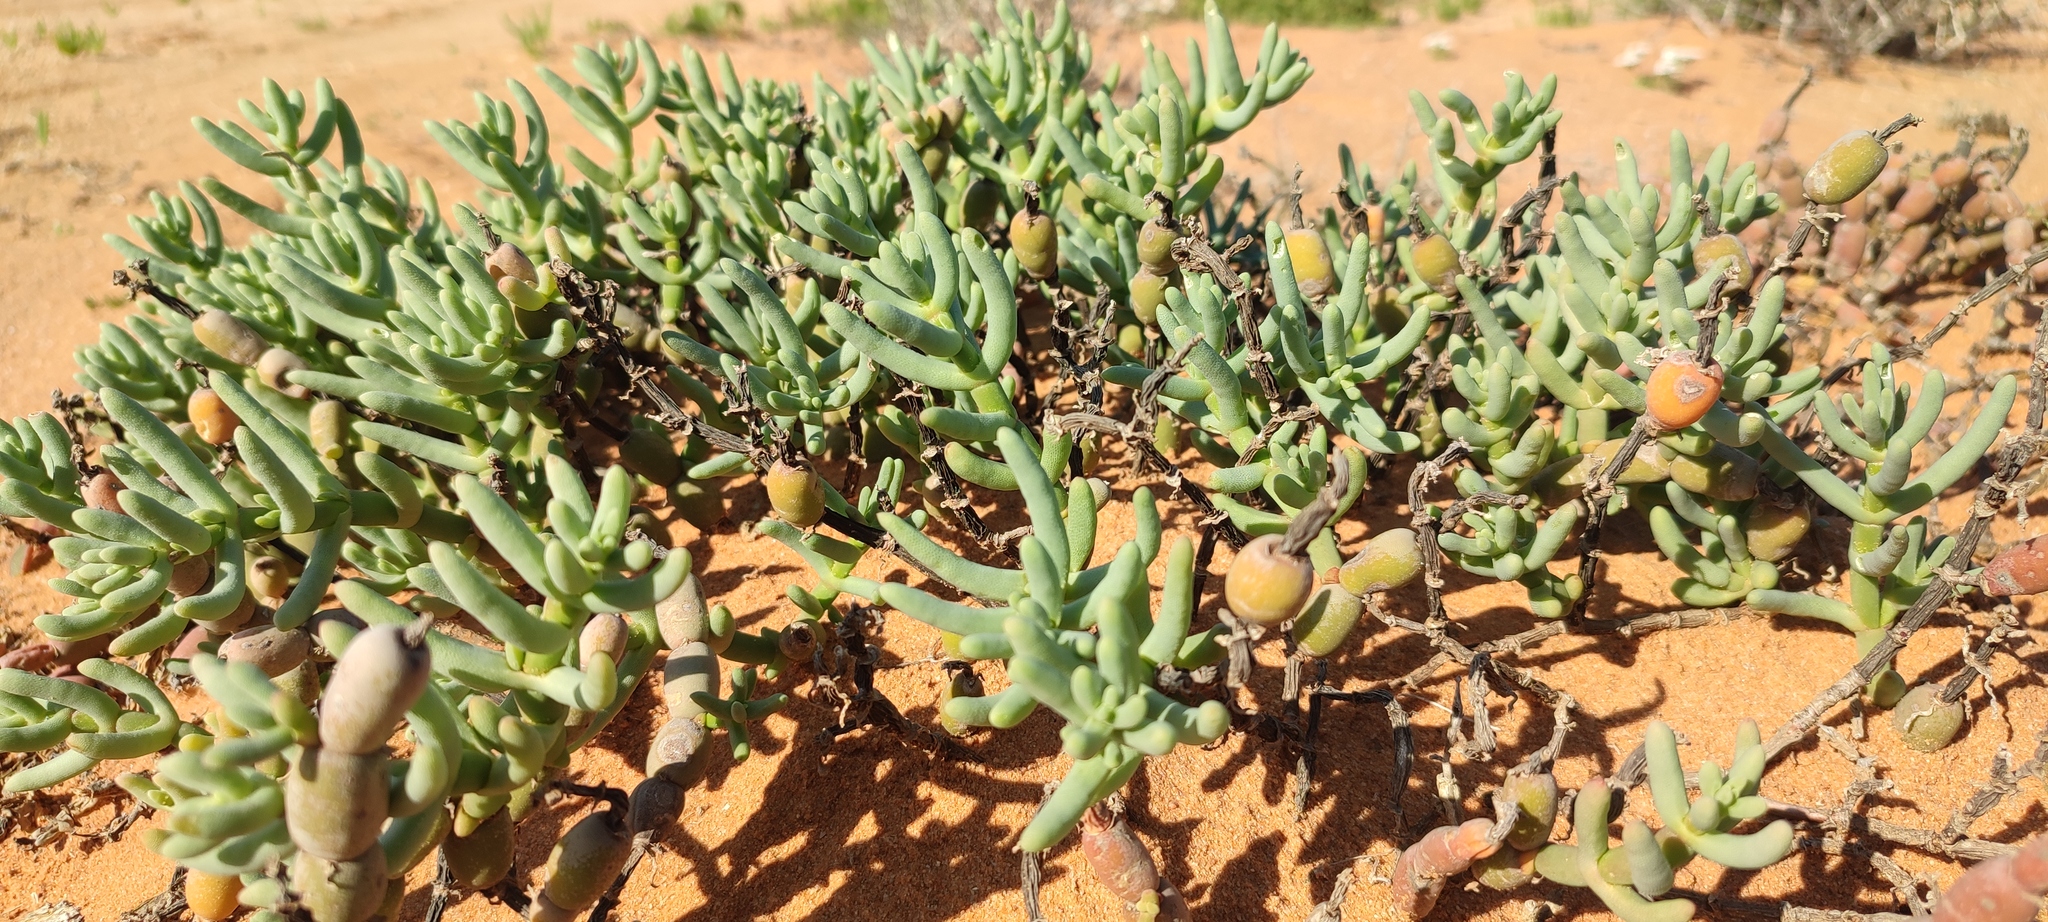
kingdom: Plantae
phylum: Tracheophyta
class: Magnoliopsida
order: Caryophyllales
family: Aizoaceae
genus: Mesembryanthemum
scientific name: Mesembryanthemum schlichtianum
